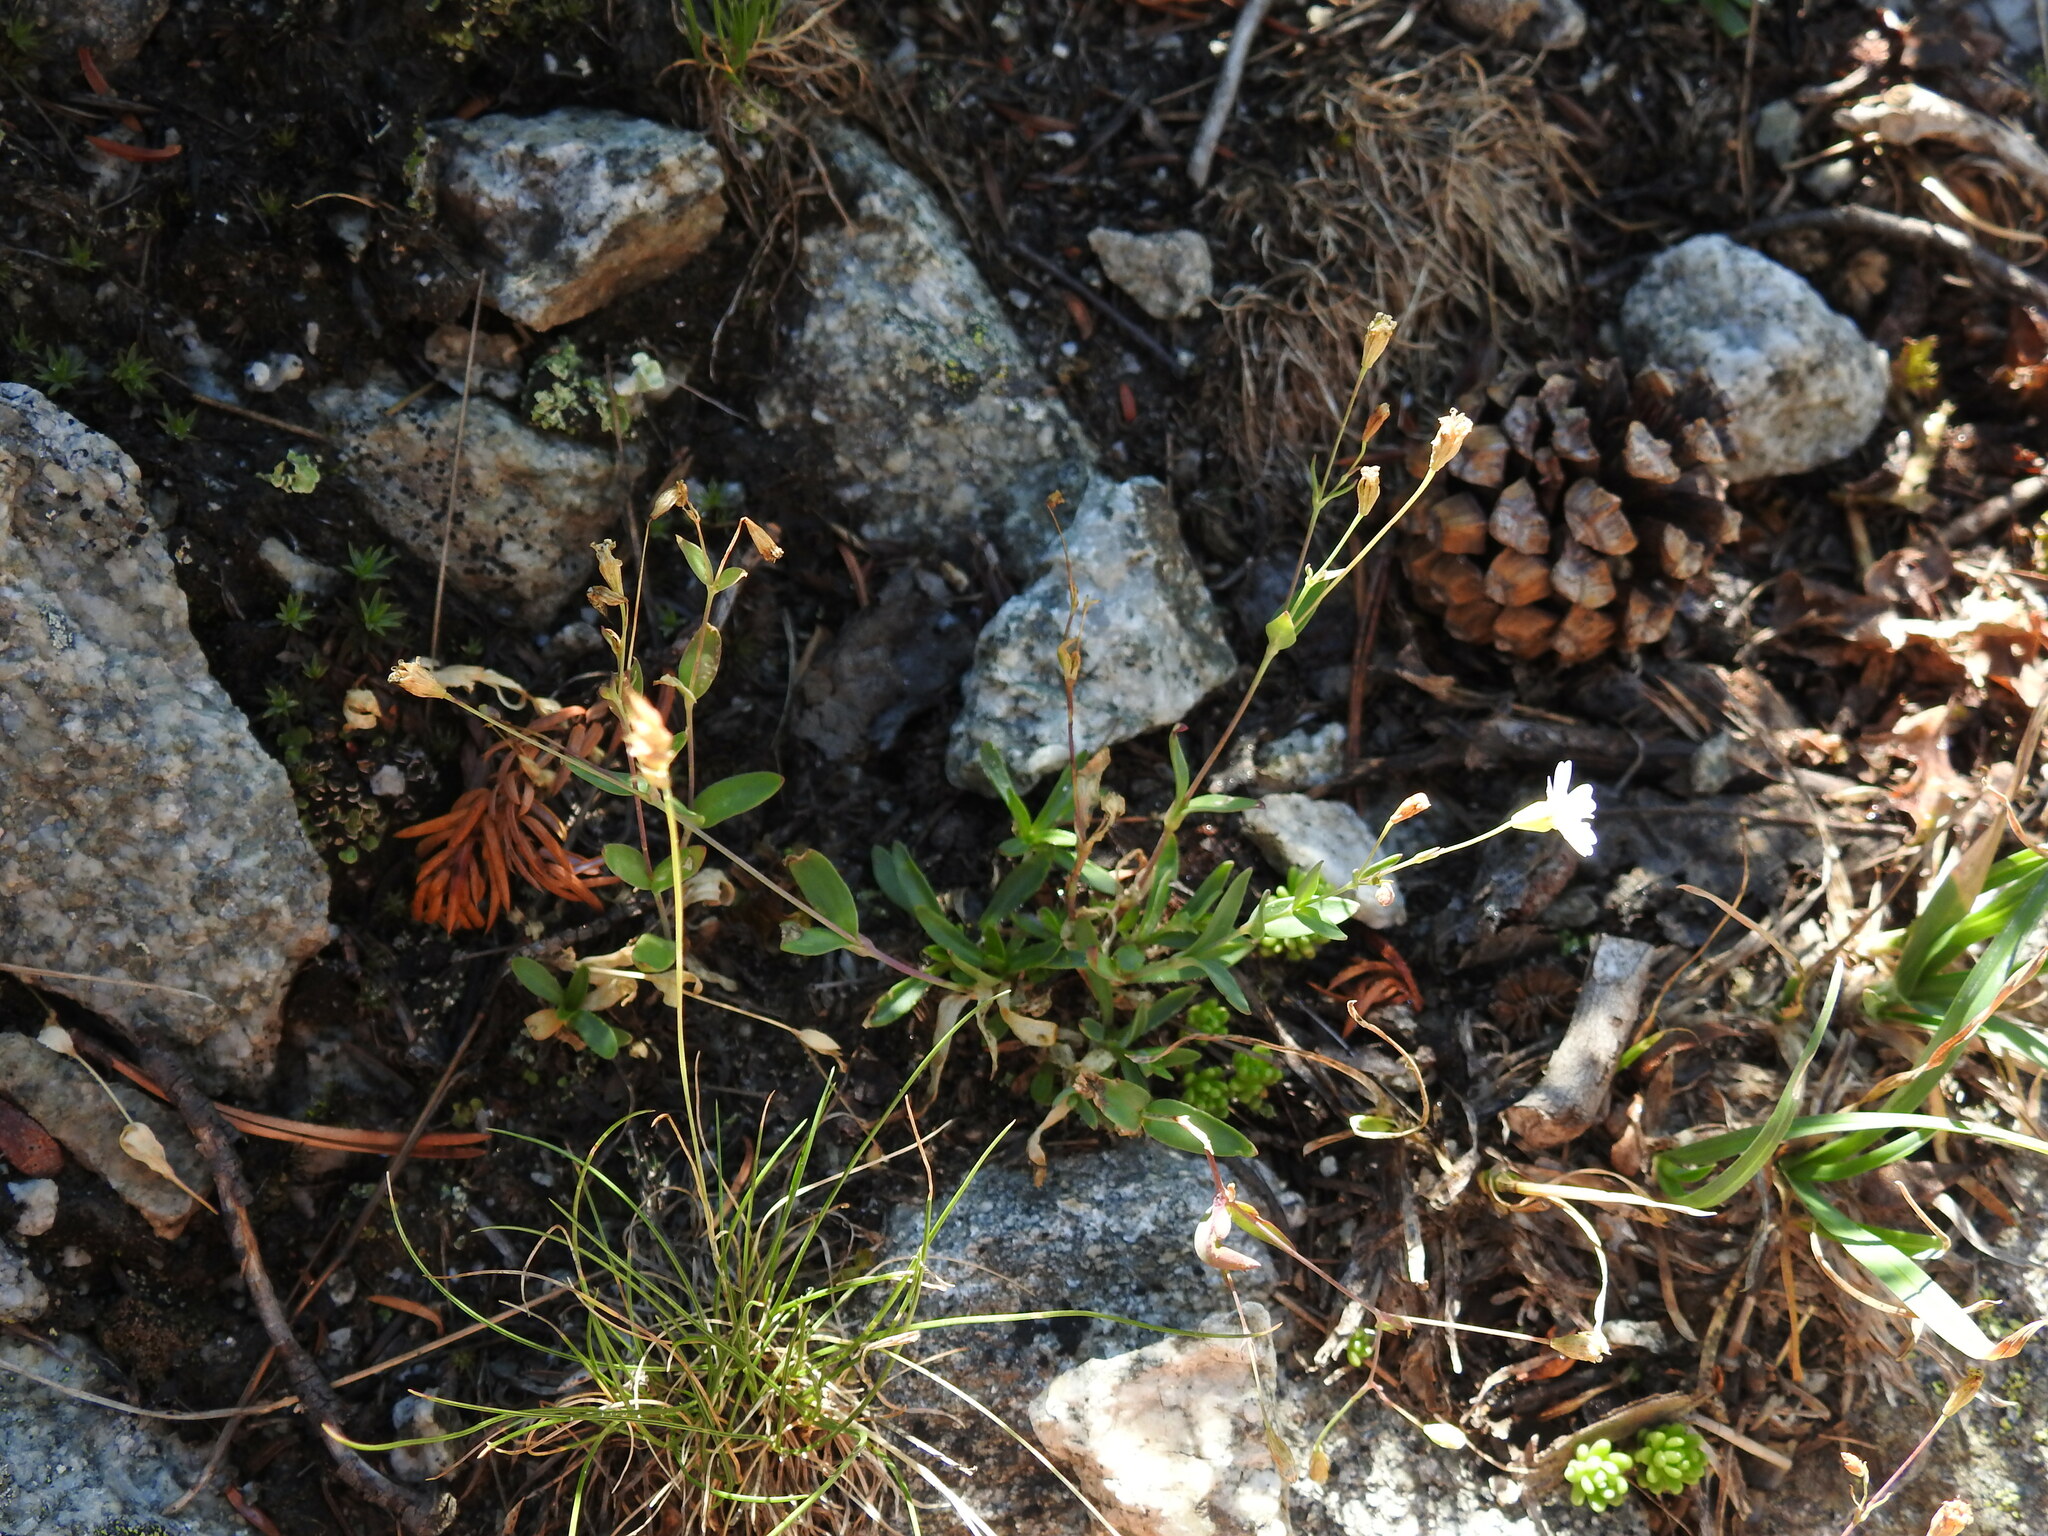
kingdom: Plantae
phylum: Tracheophyta
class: Magnoliopsida
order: Caryophyllales
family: Caryophyllaceae
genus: Atocion
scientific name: Atocion rupestre
